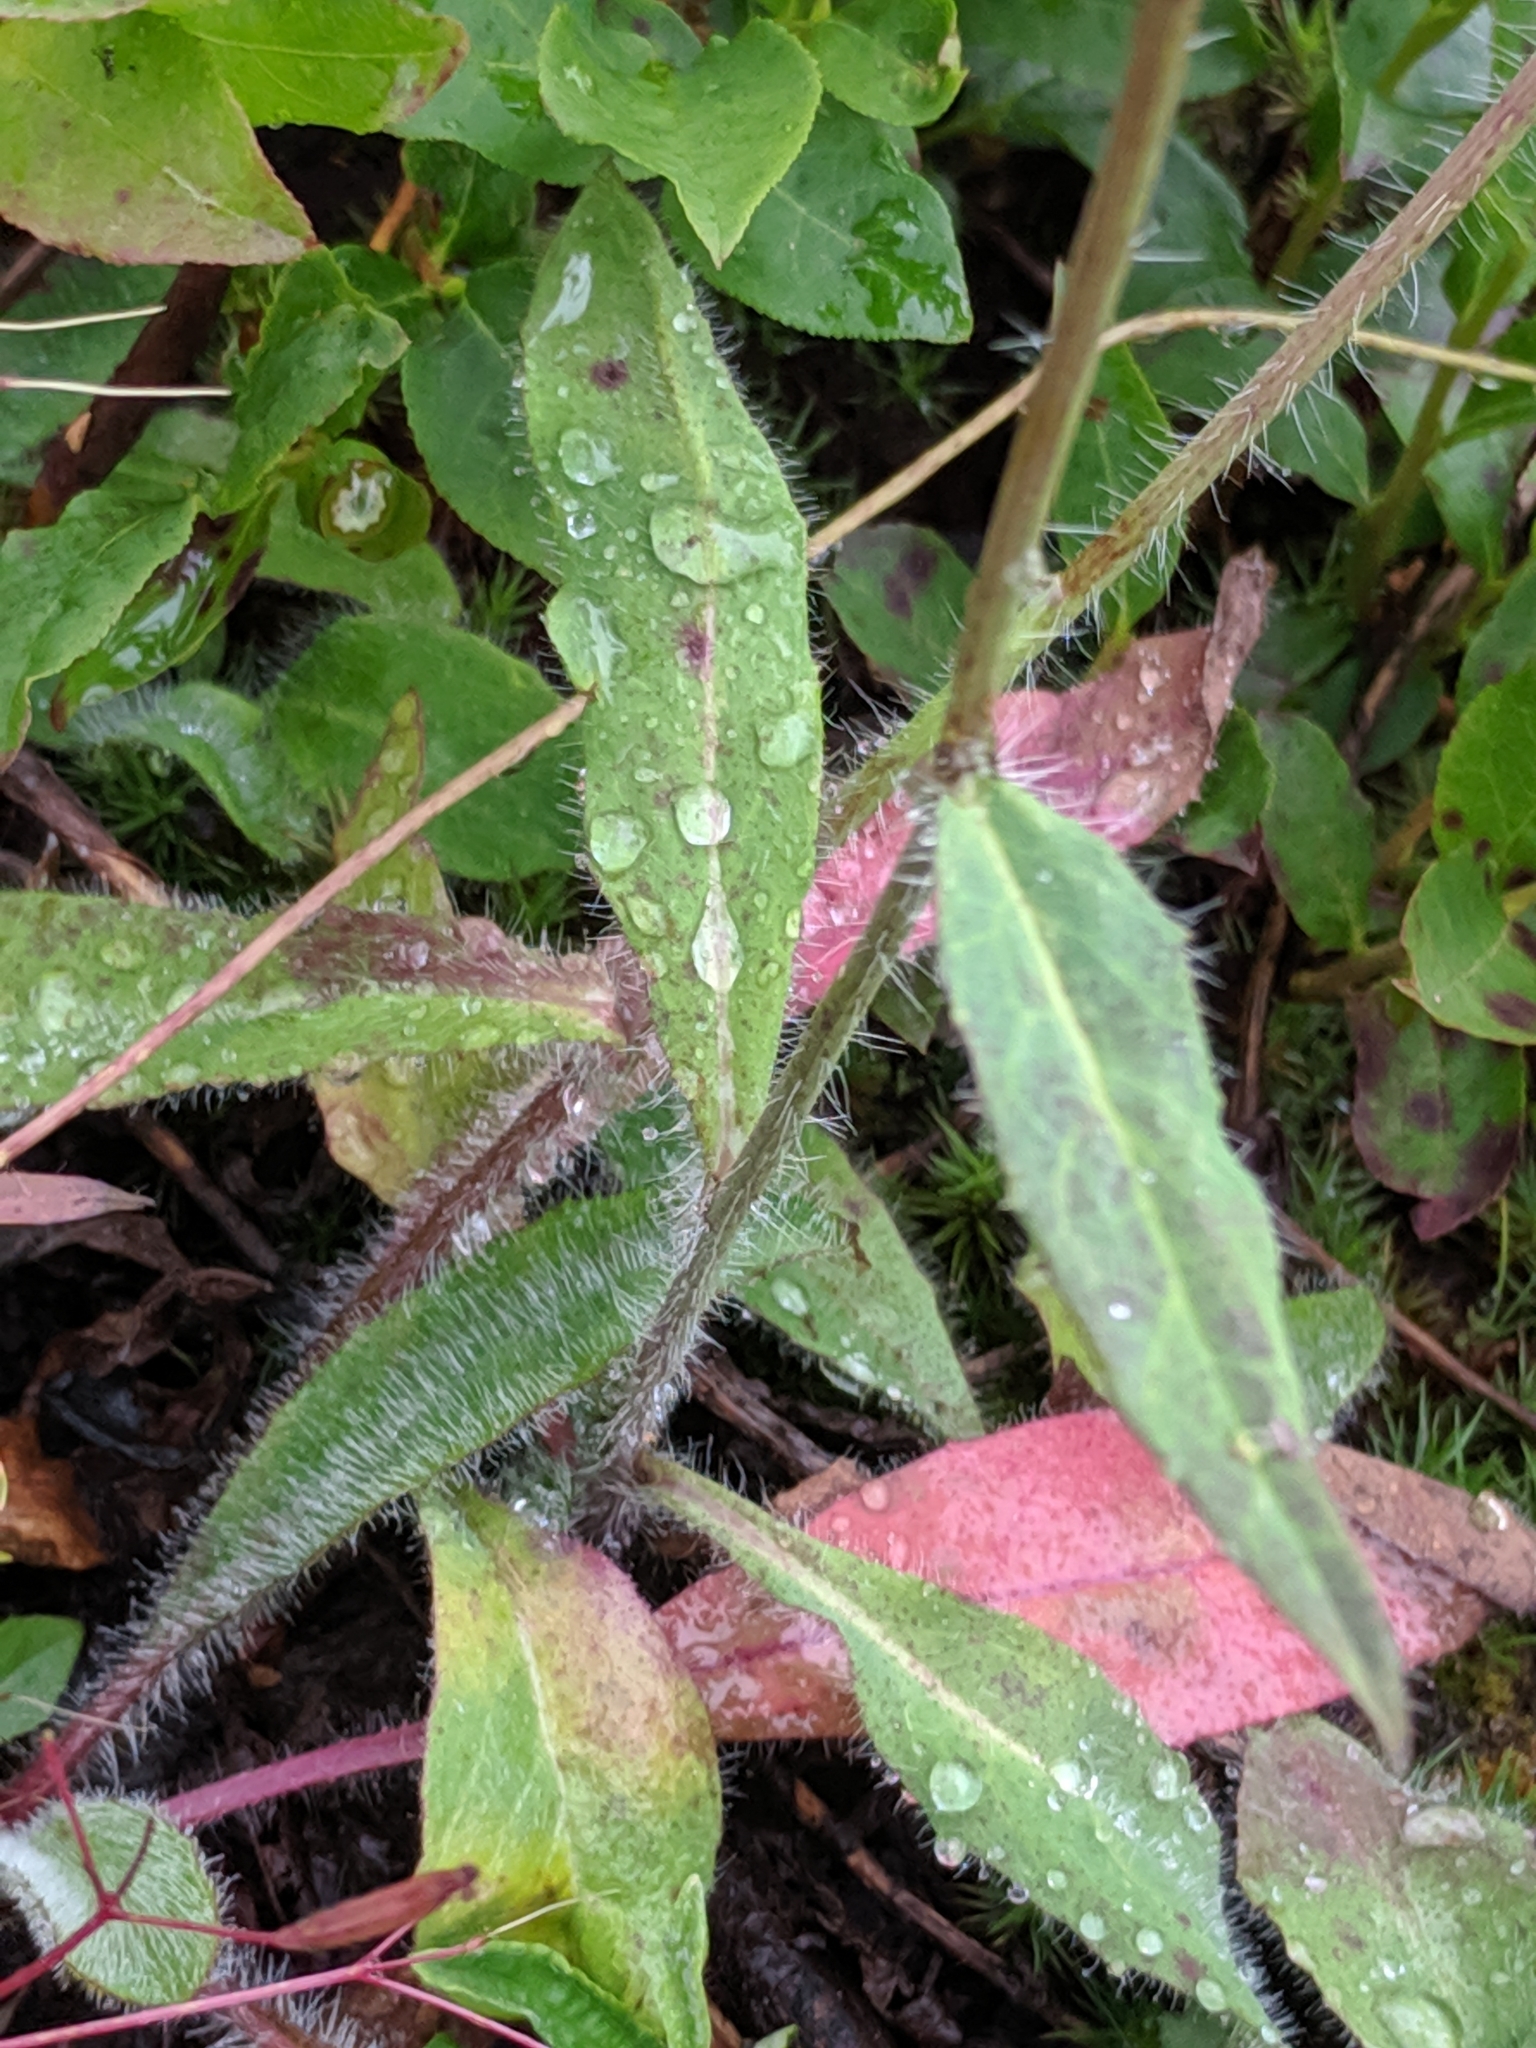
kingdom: Plantae
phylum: Tracheophyta
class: Magnoliopsida
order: Asterales
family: Asteraceae
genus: Hieracium
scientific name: Hieracium albiflorum
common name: White hawkweed
